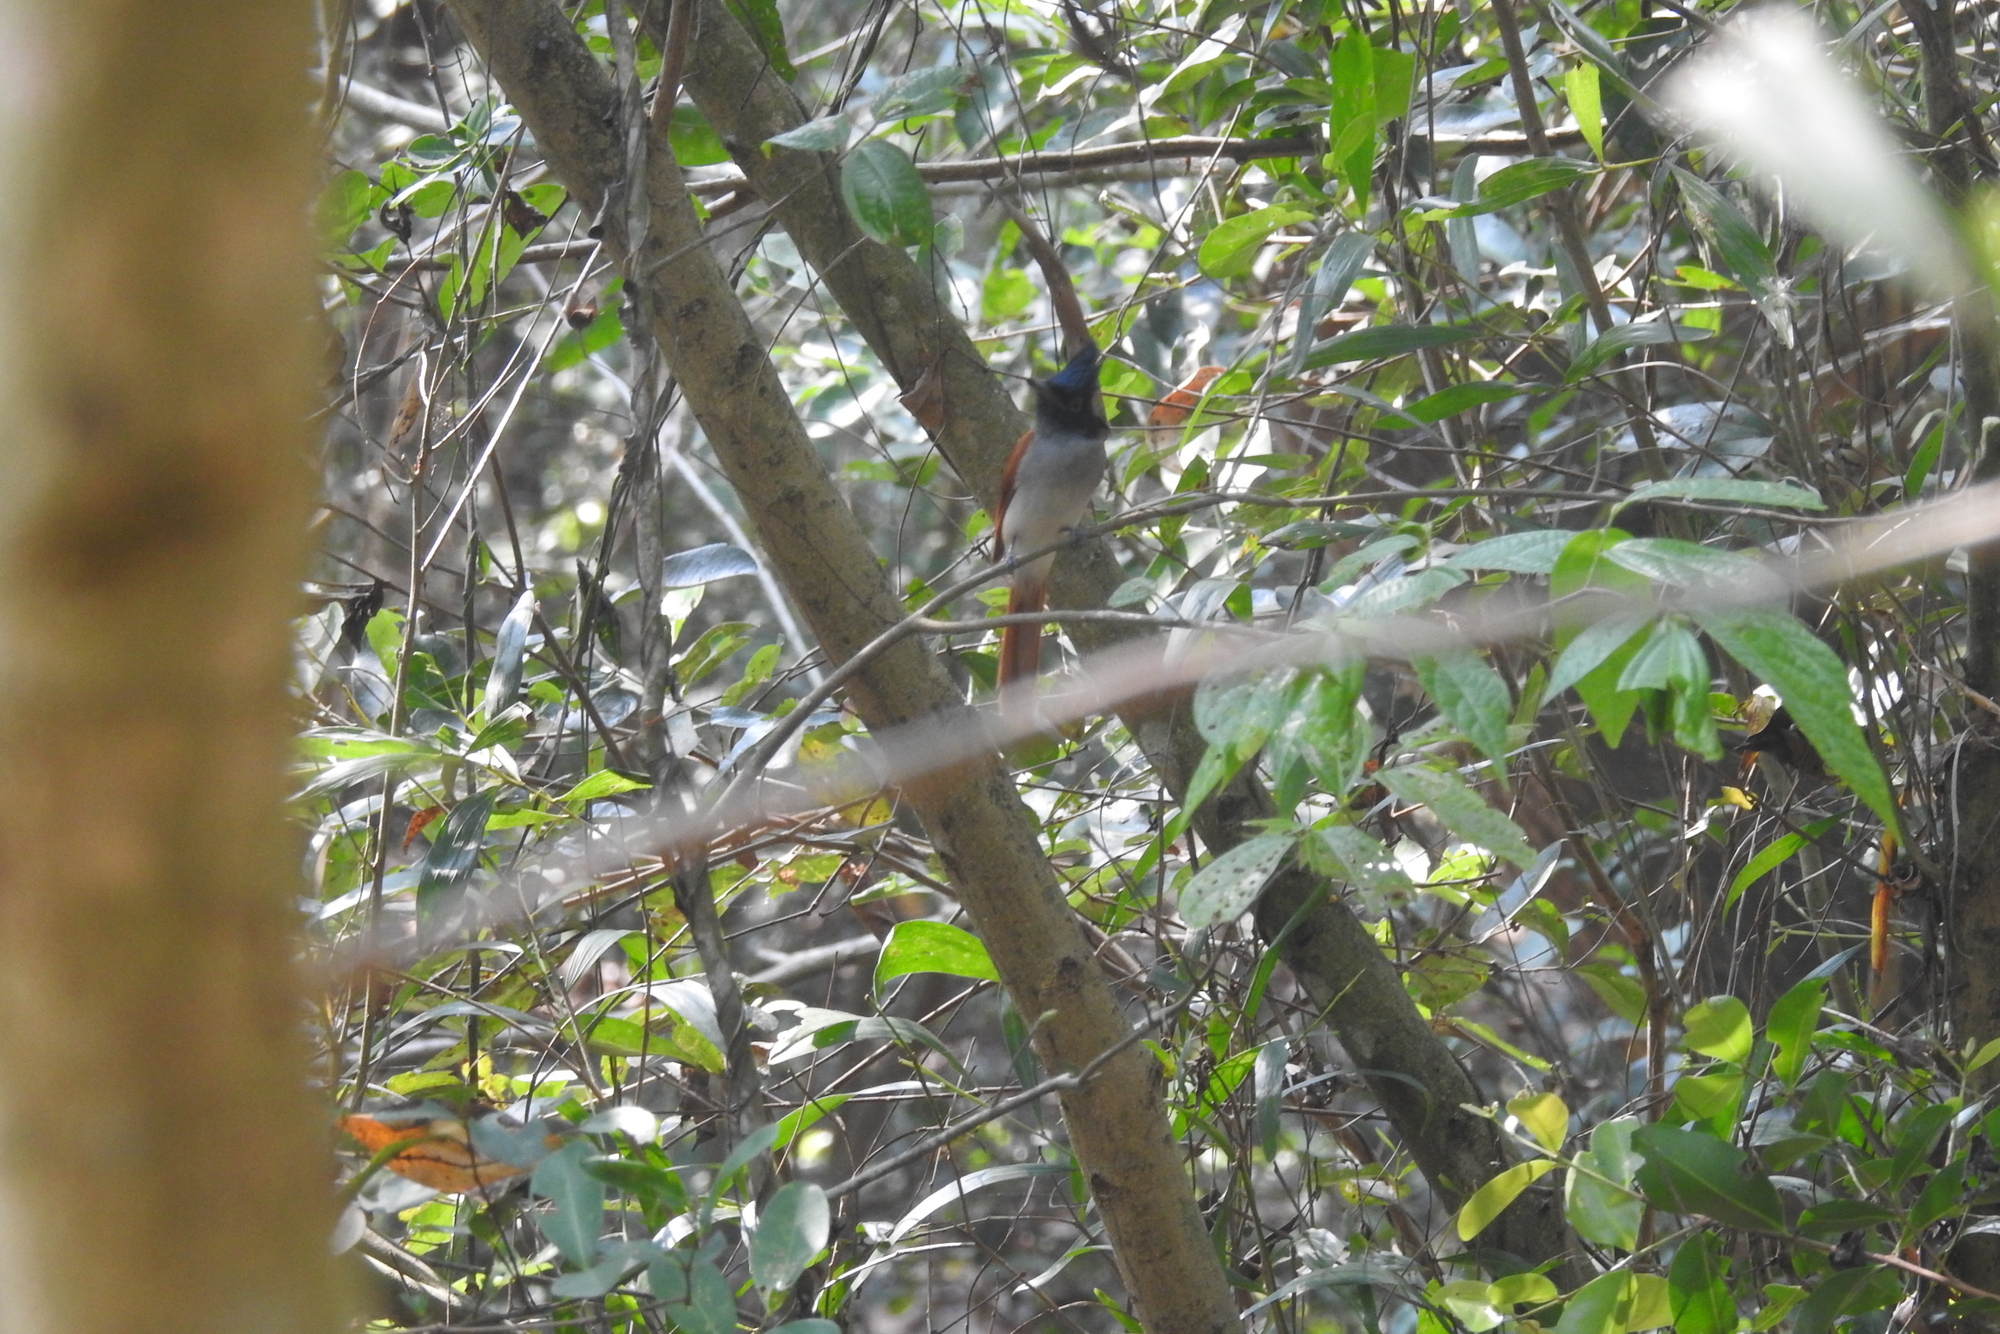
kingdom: Animalia
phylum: Chordata
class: Aves
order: Passeriformes
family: Monarchidae
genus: Terpsiphone
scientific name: Terpsiphone paradisi
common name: Indian paradise flycatcher
